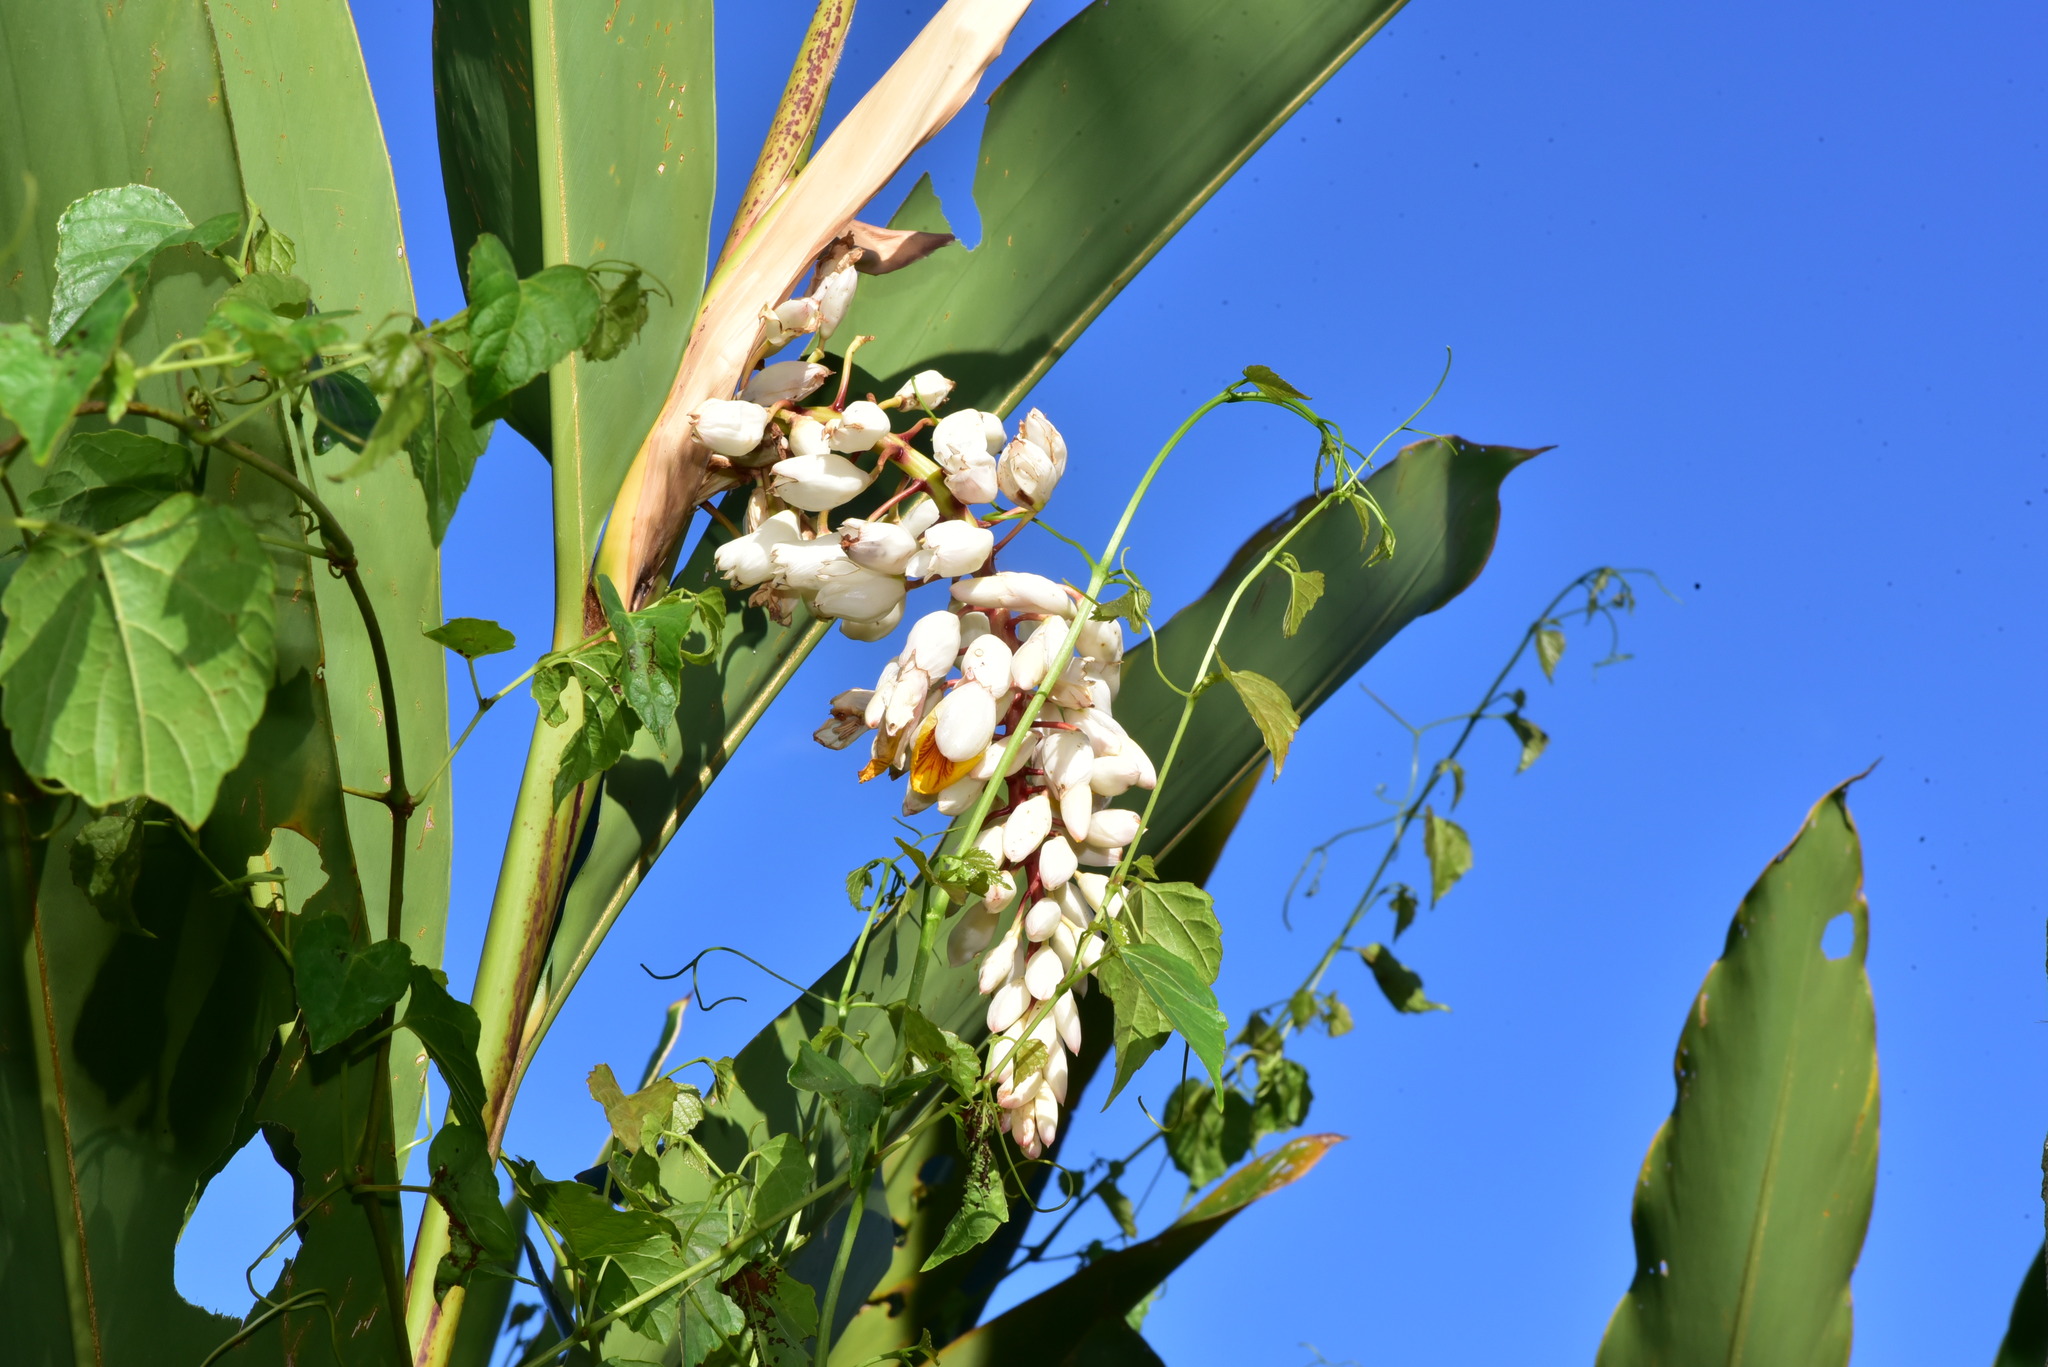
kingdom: Plantae
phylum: Tracheophyta
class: Liliopsida
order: Zingiberales
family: Zingiberaceae
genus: Alpinia
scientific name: Alpinia zerumbet
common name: Shellplant
